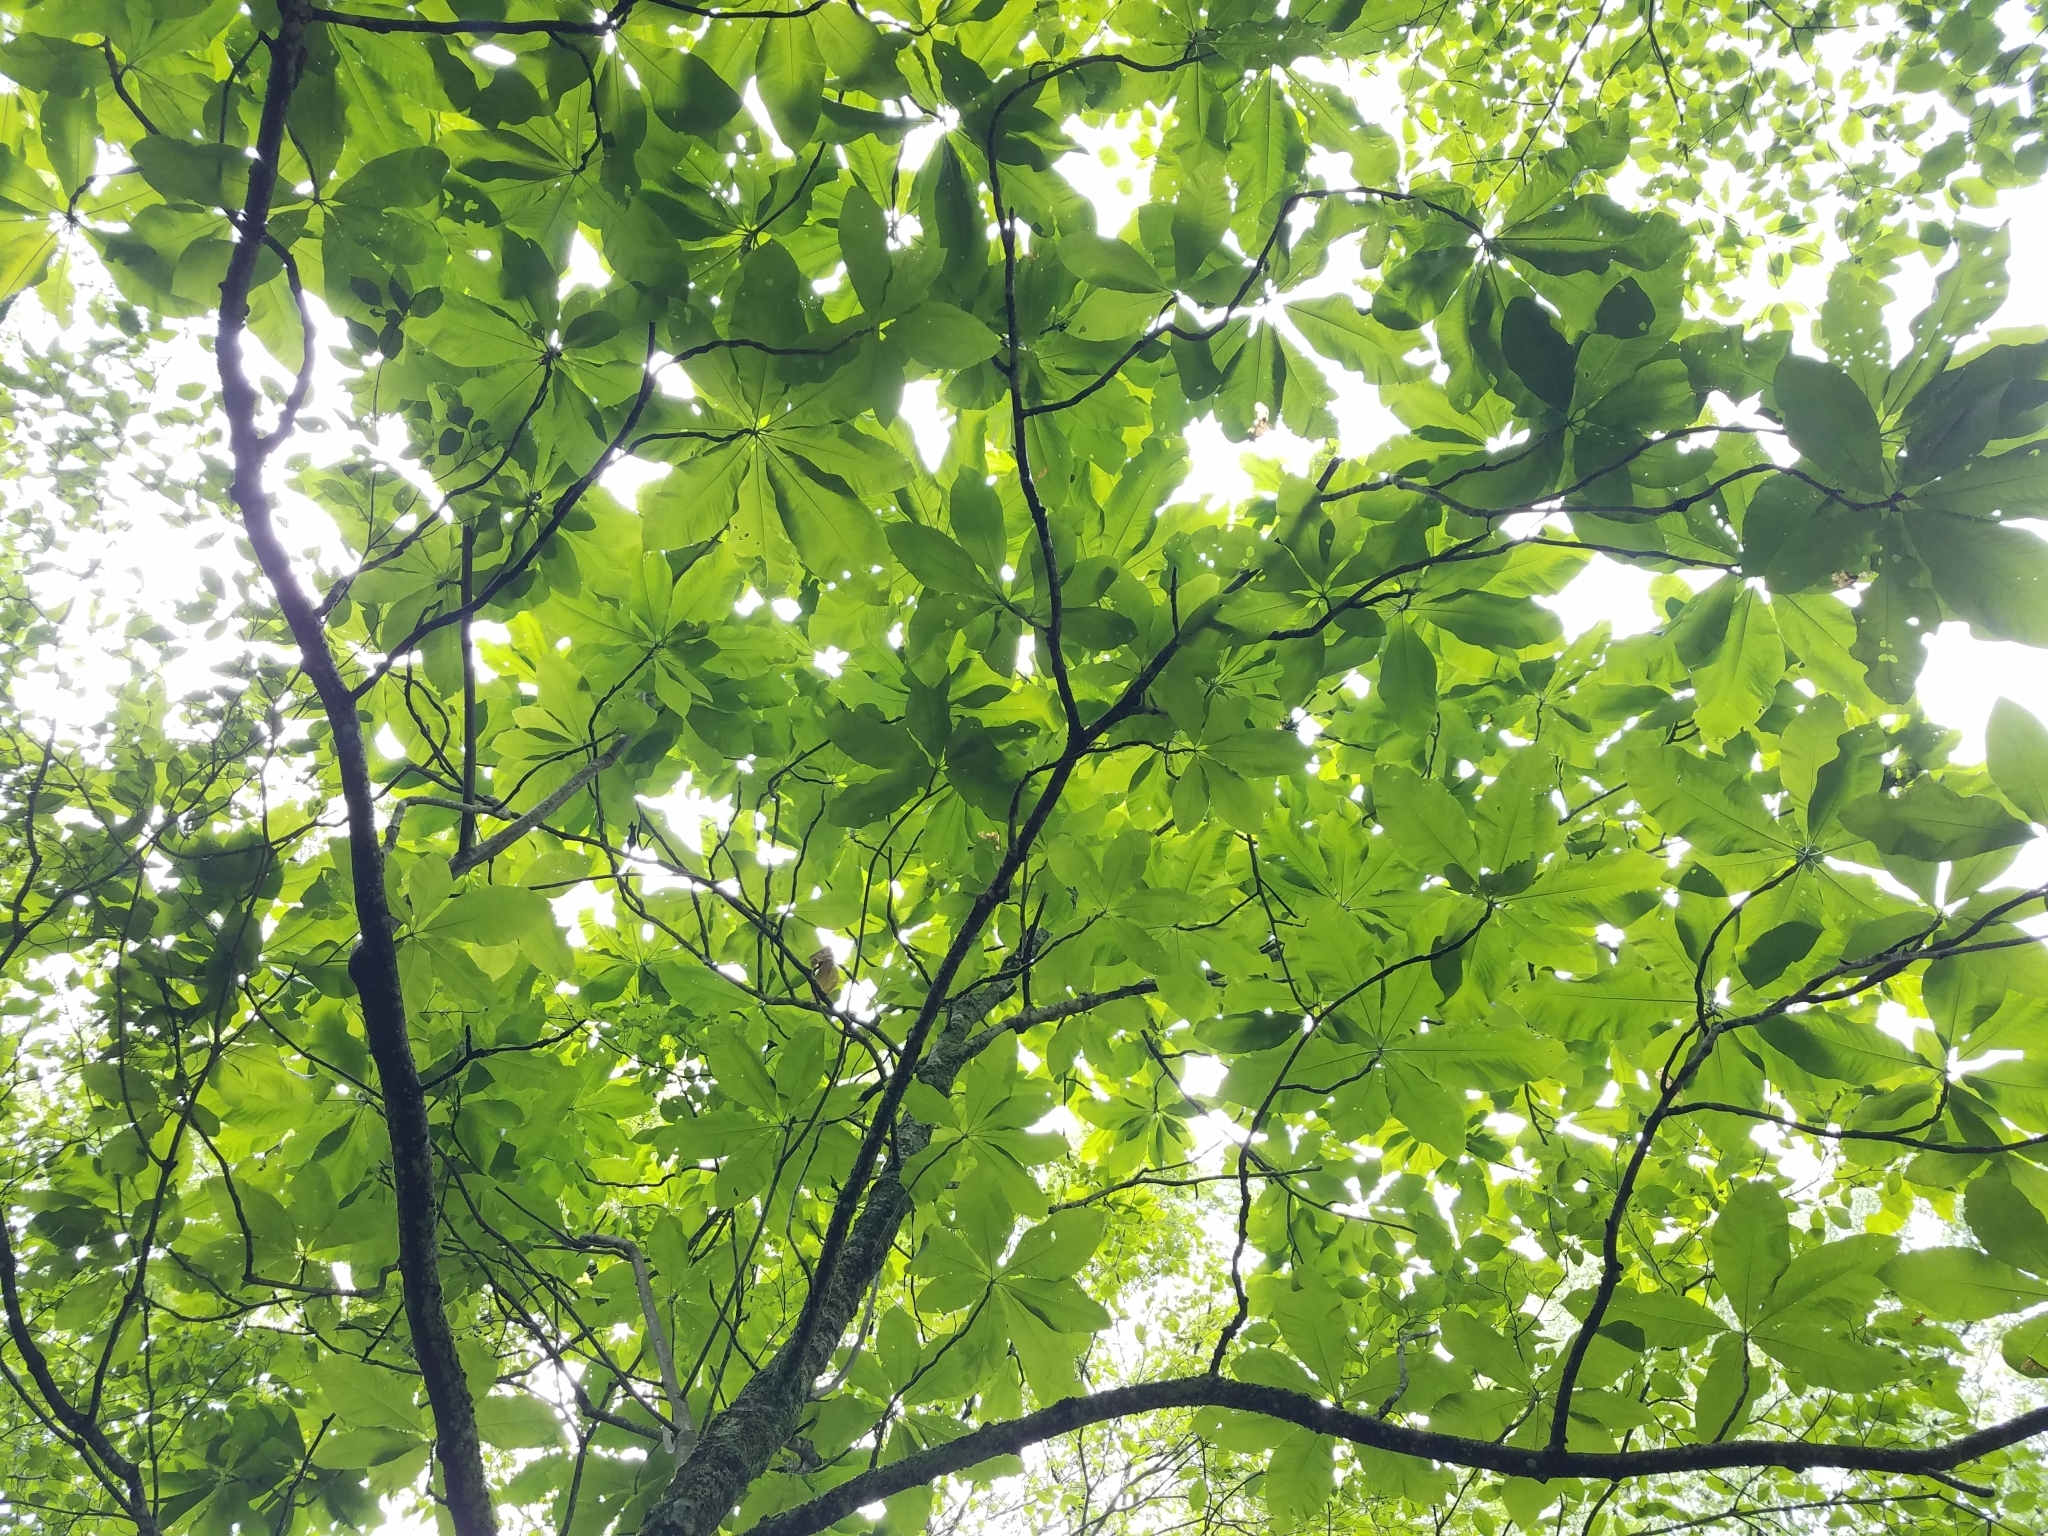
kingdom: Plantae
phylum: Tracheophyta
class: Magnoliopsida
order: Magnoliales
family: Magnoliaceae
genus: Magnolia
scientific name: Magnolia tripetala
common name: Umbrella magnolia
